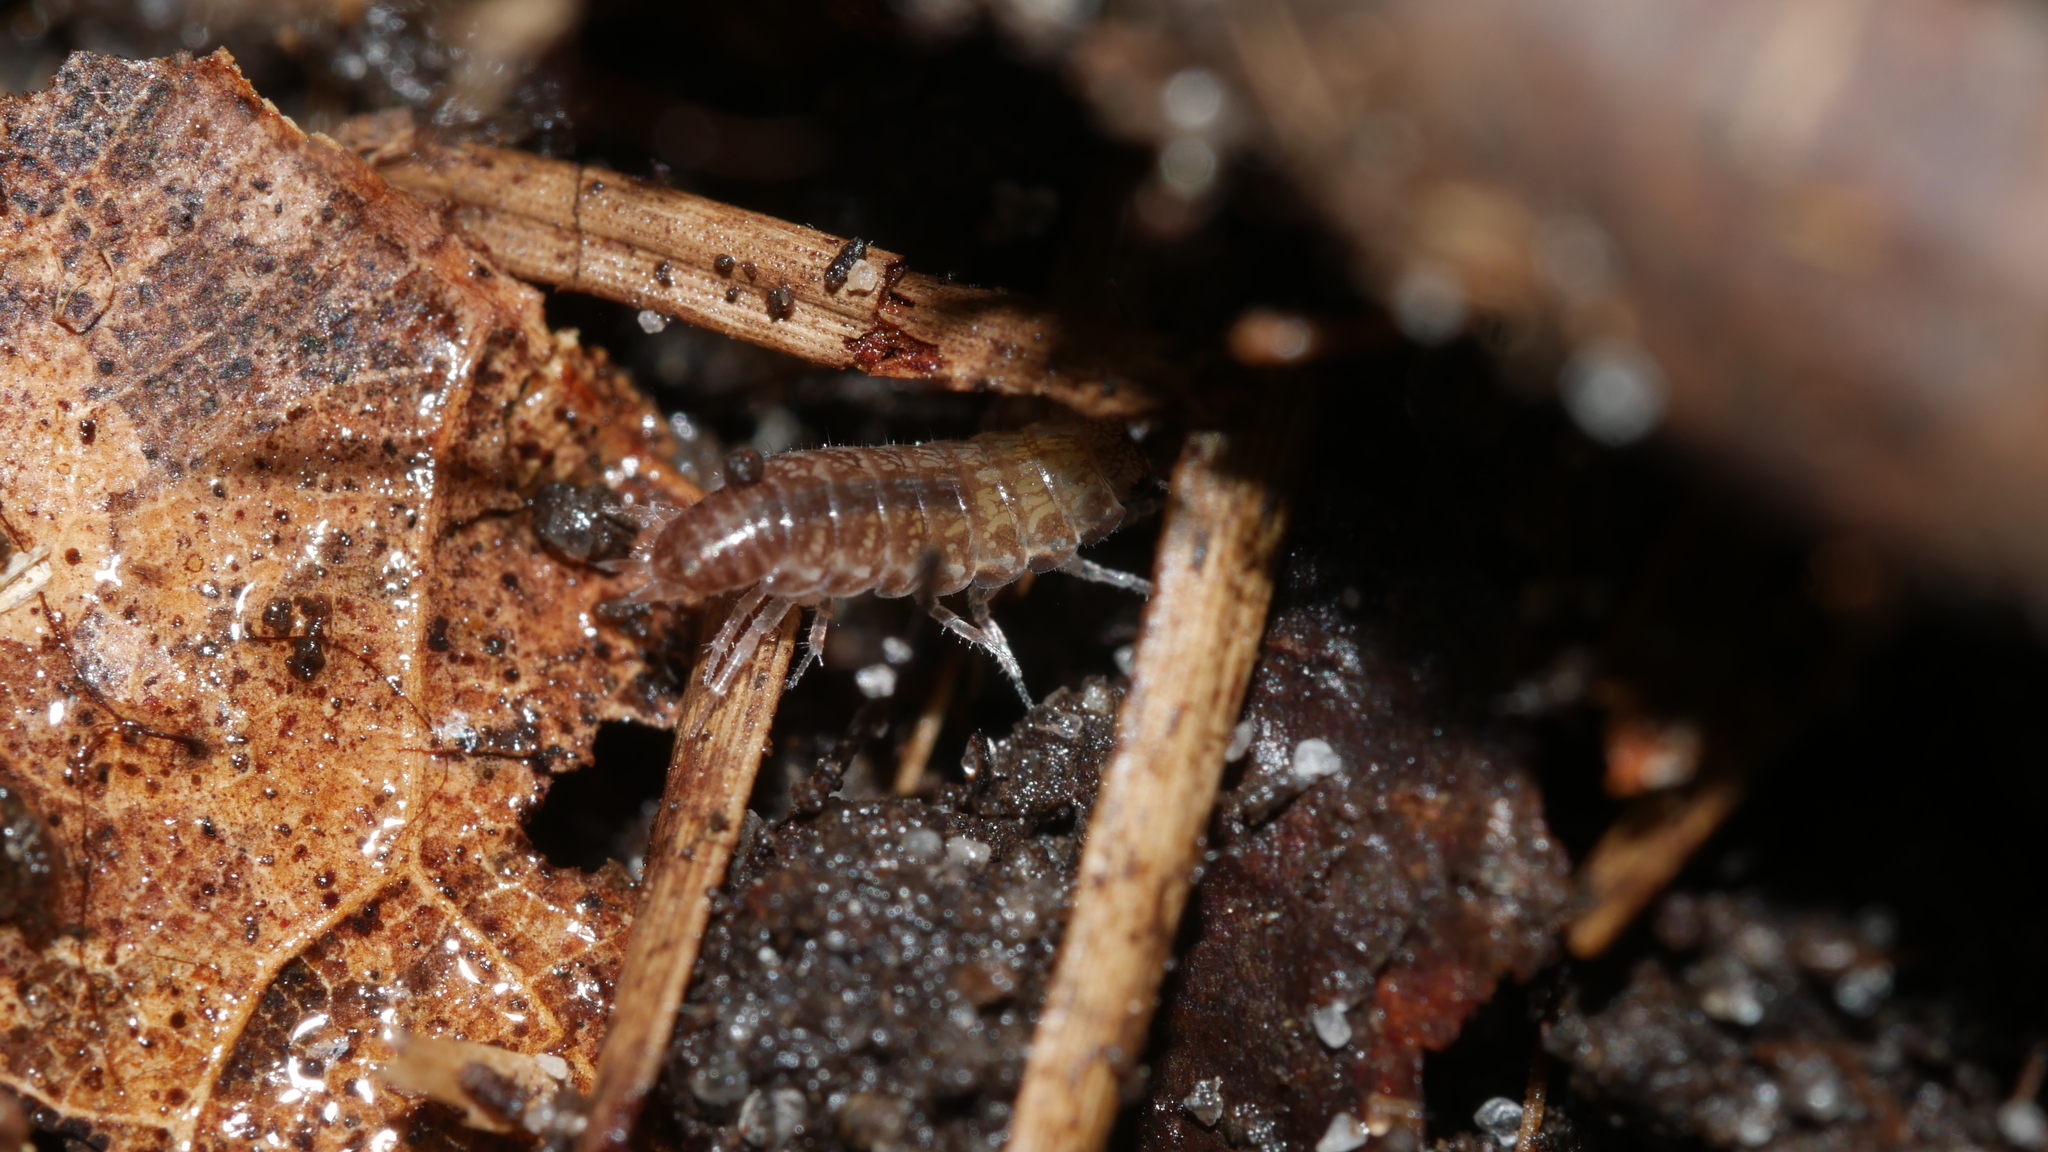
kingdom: Animalia
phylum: Arthropoda
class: Malacostraca
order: Isopoda
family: Philosciidae
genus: Chaetophiloscia
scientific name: Chaetophiloscia sicula
